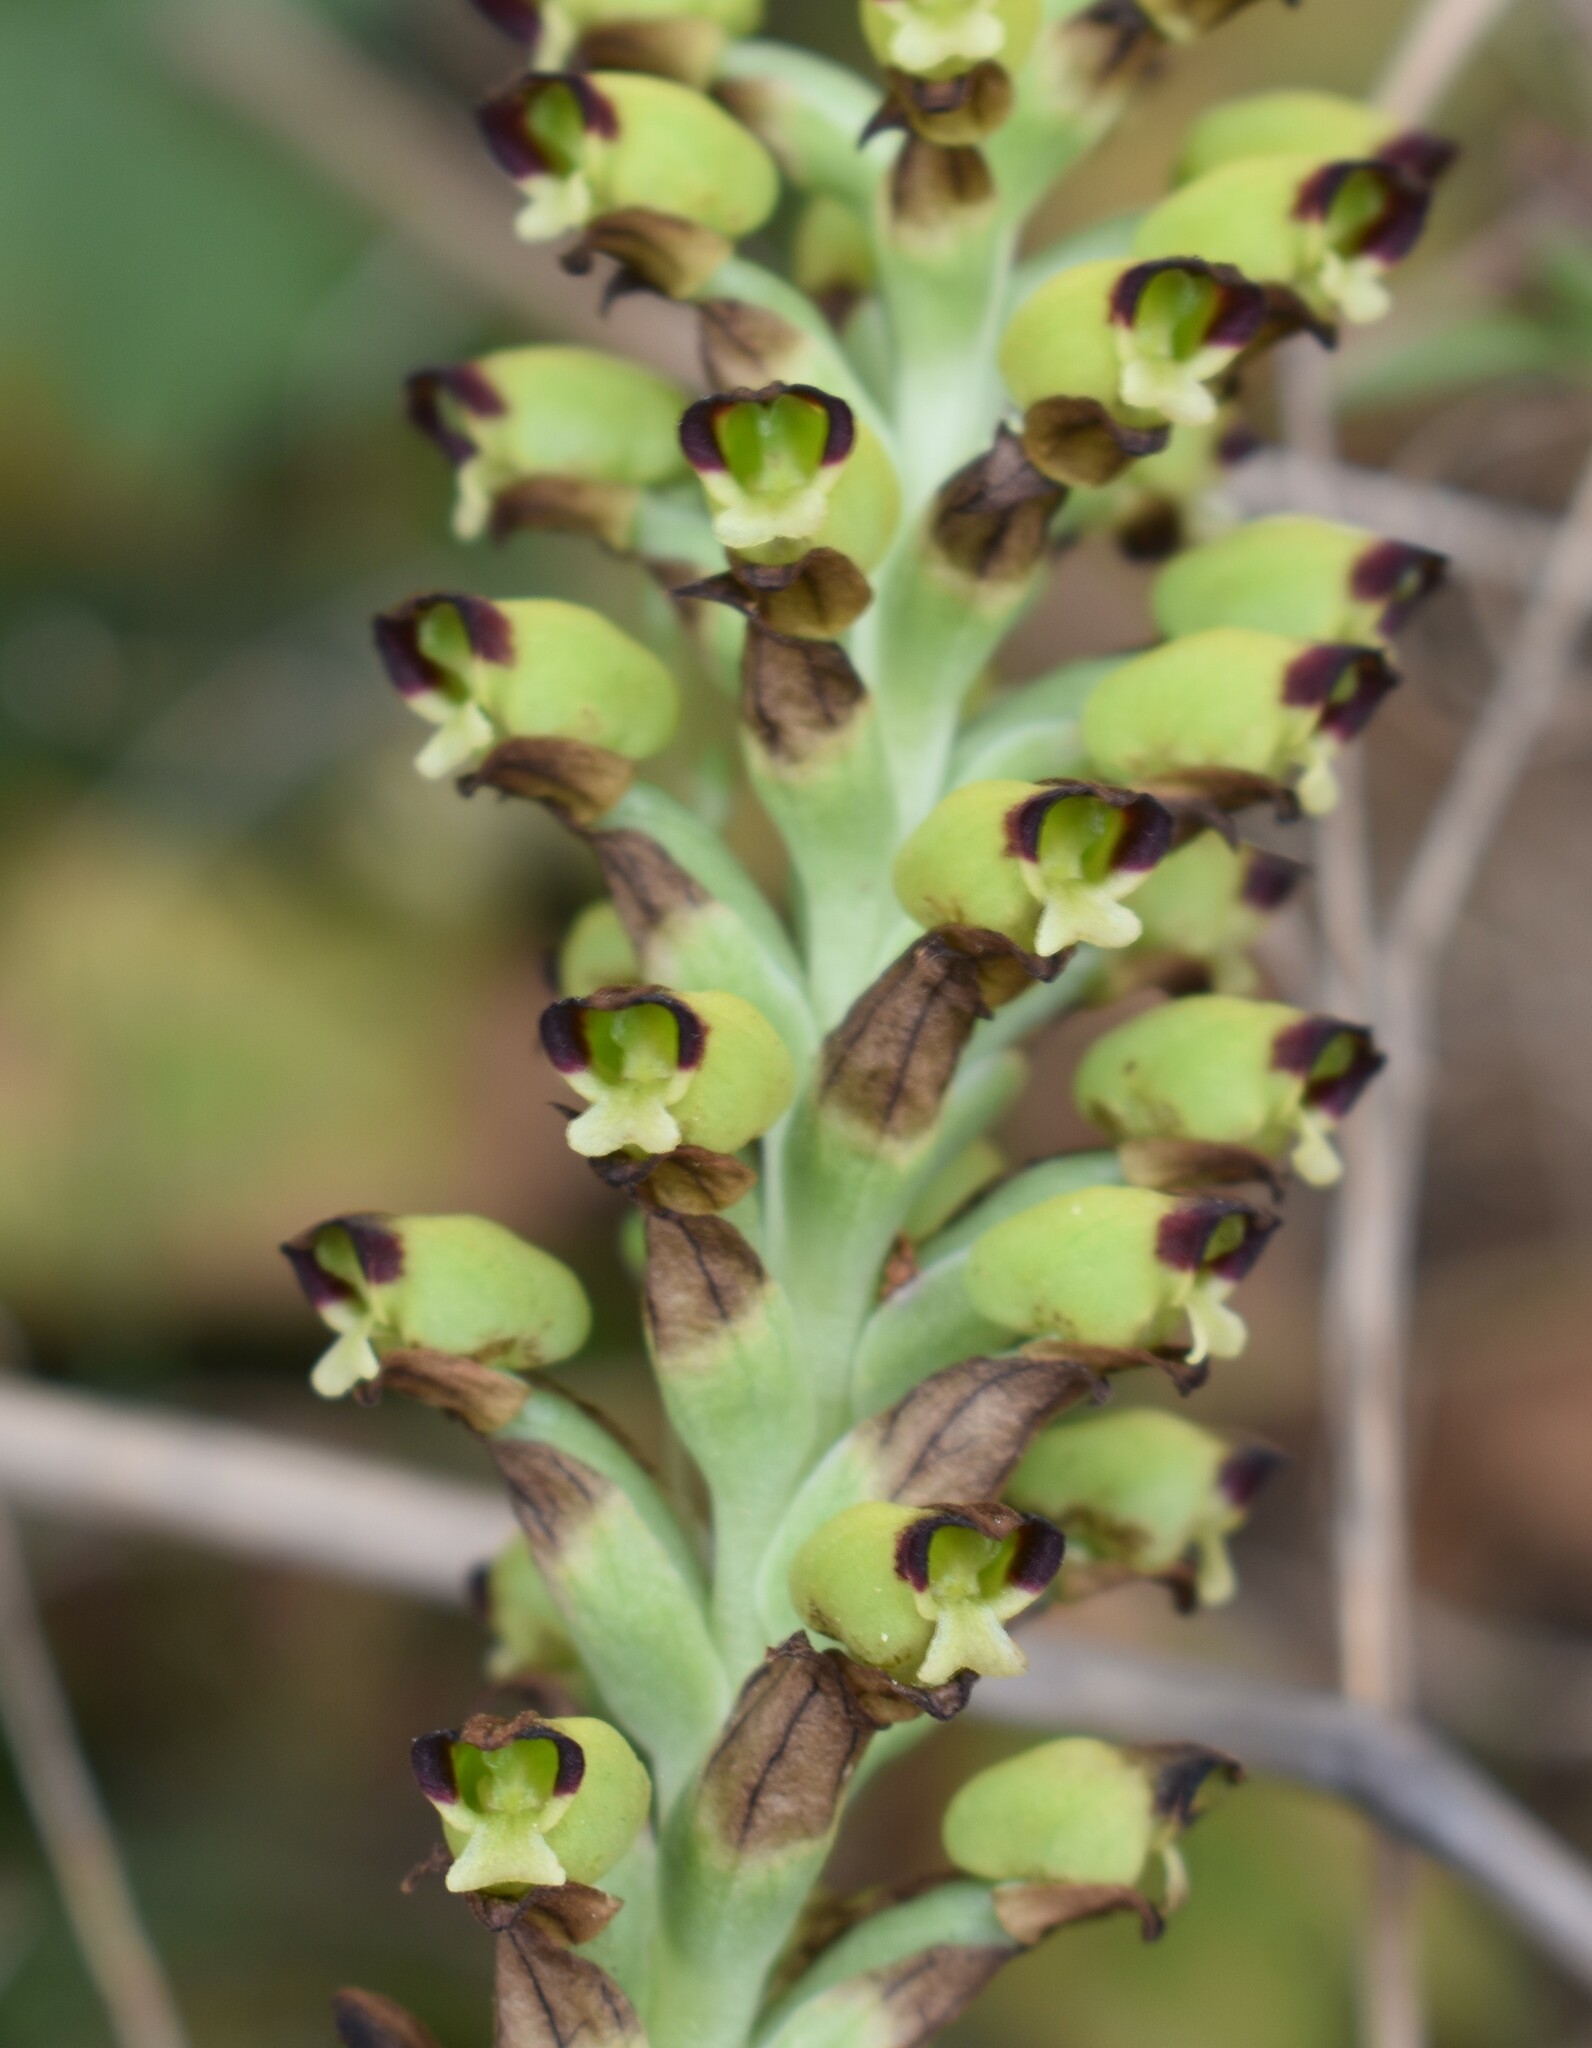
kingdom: Plantae
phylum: Tracheophyta
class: Liliopsida
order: Asparagales
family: Orchidaceae
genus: Corycium
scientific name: Corycium orobanchoides
